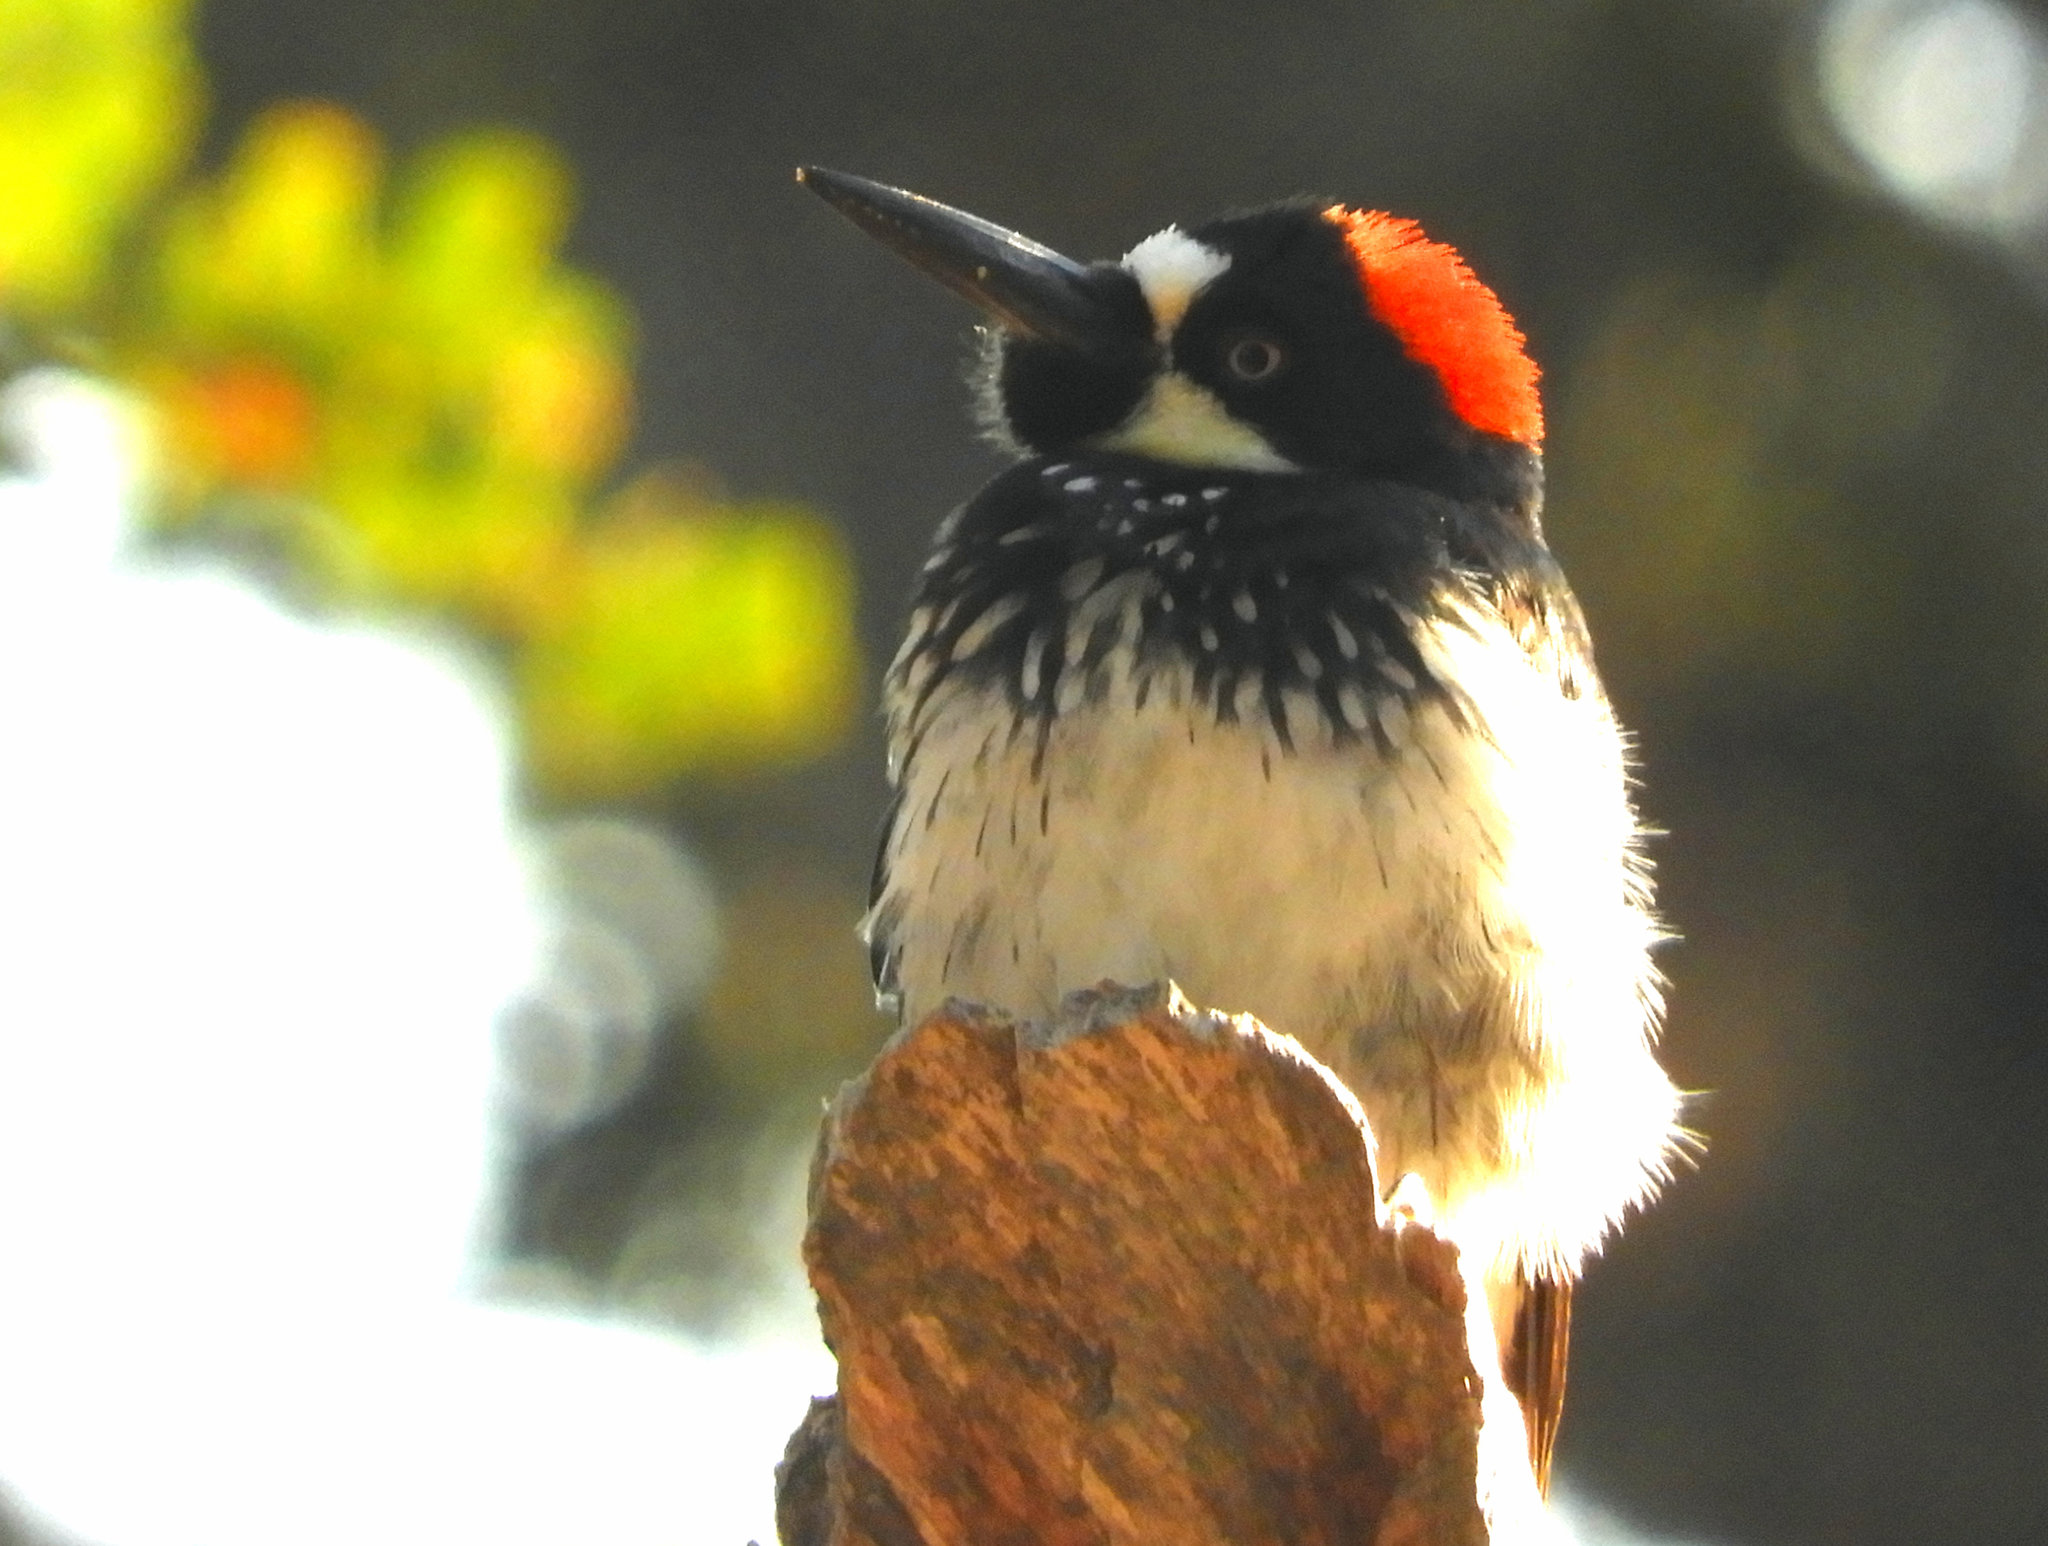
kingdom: Animalia
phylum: Chordata
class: Aves
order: Piciformes
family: Picidae
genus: Melanerpes
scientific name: Melanerpes formicivorus
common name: Acorn woodpecker
